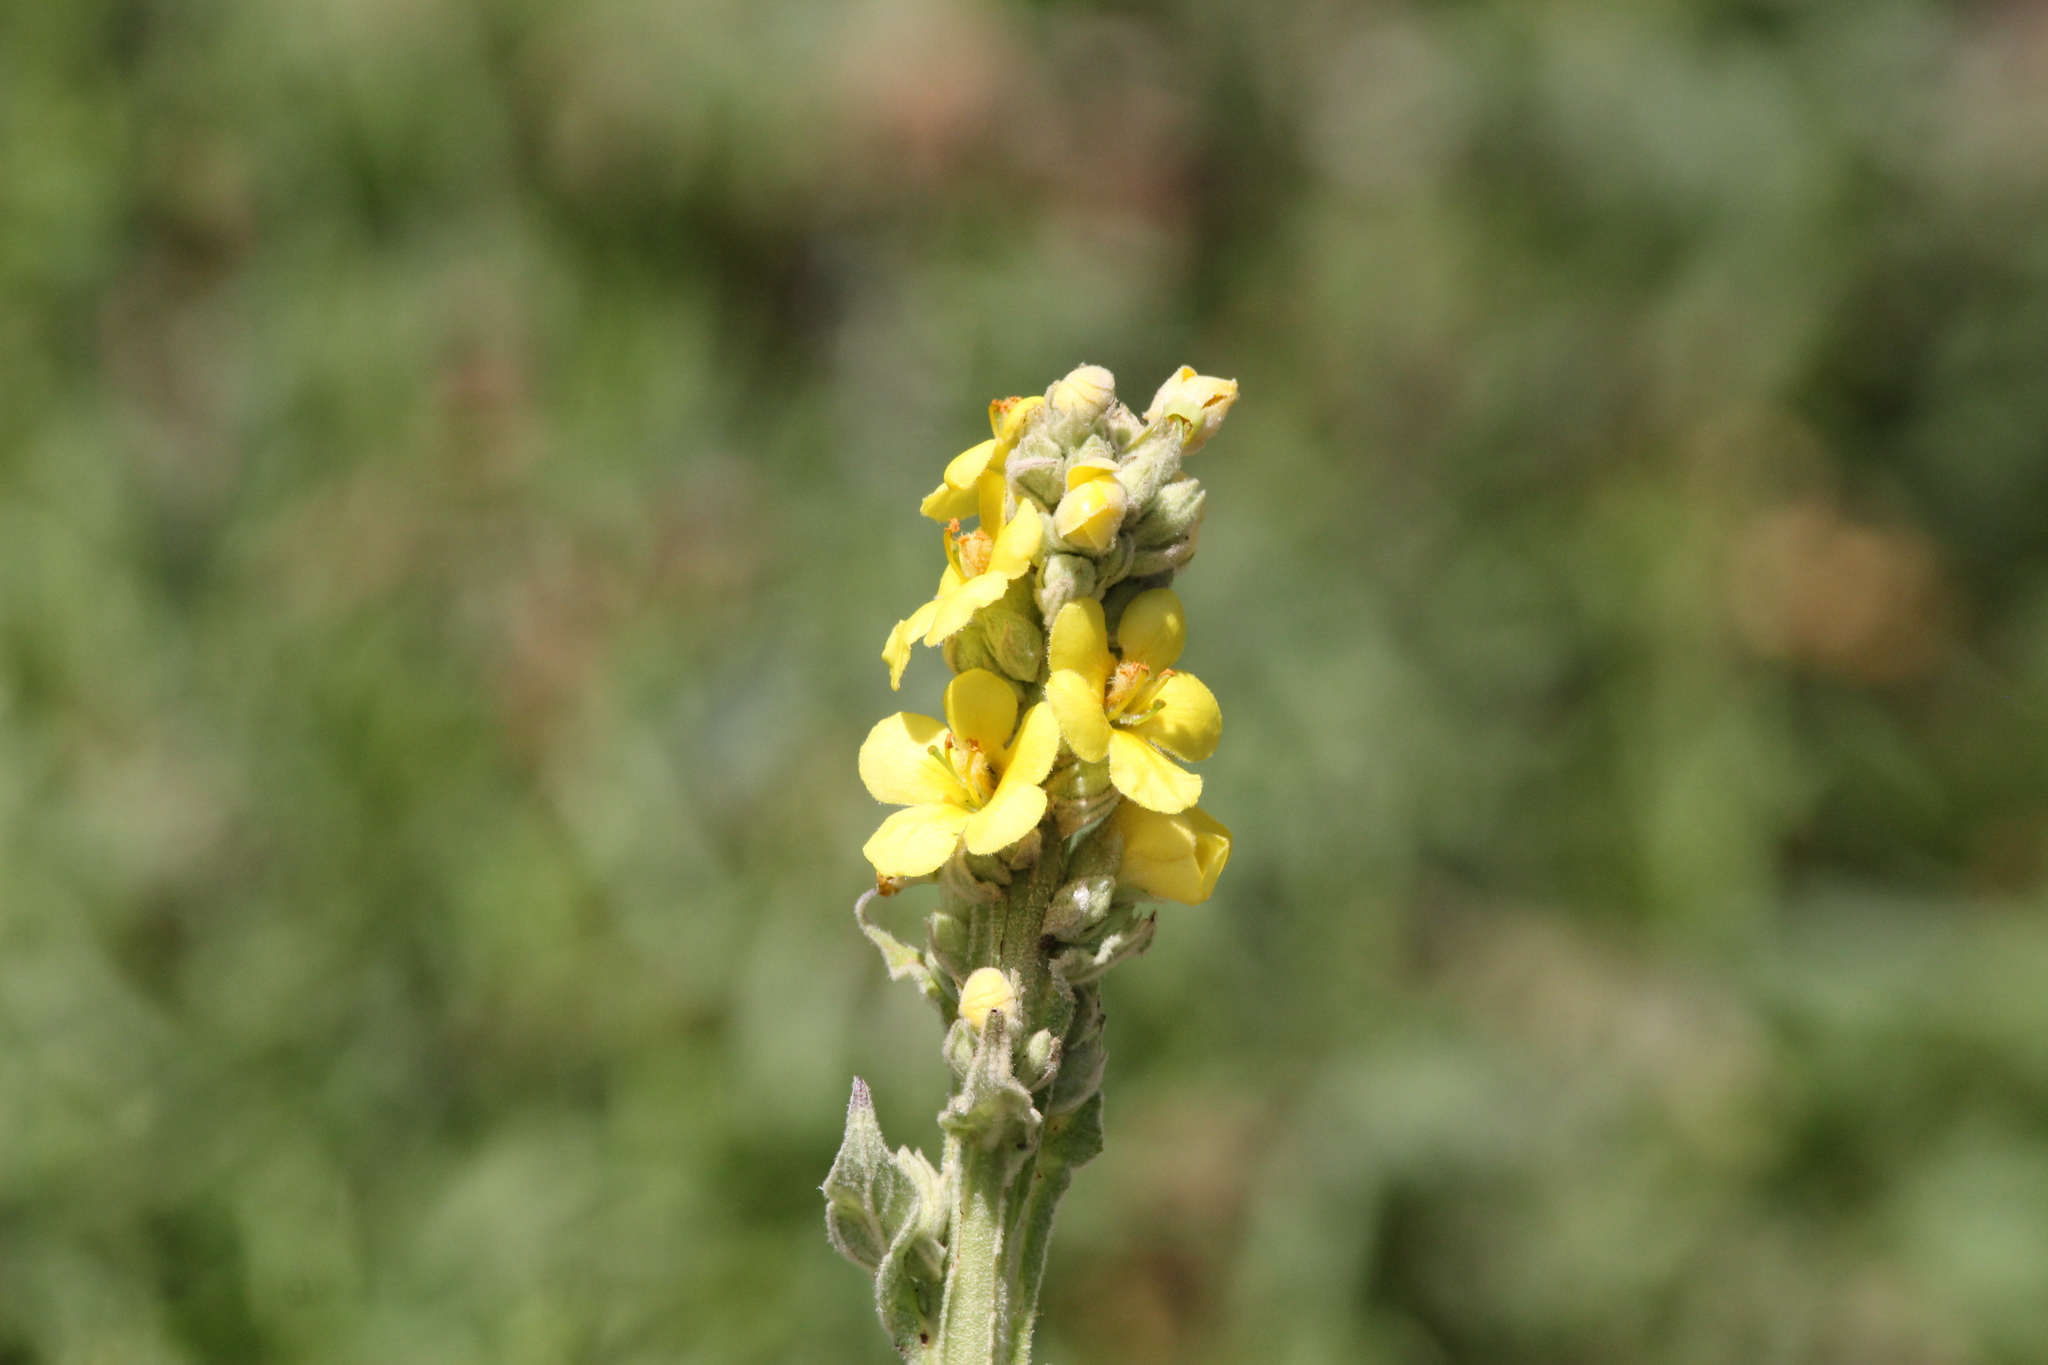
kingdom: Plantae
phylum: Tracheophyta
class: Magnoliopsida
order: Lamiales
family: Scrophulariaceae
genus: Verbascum
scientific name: Verbascum virgatum
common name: Twiggy mullein
